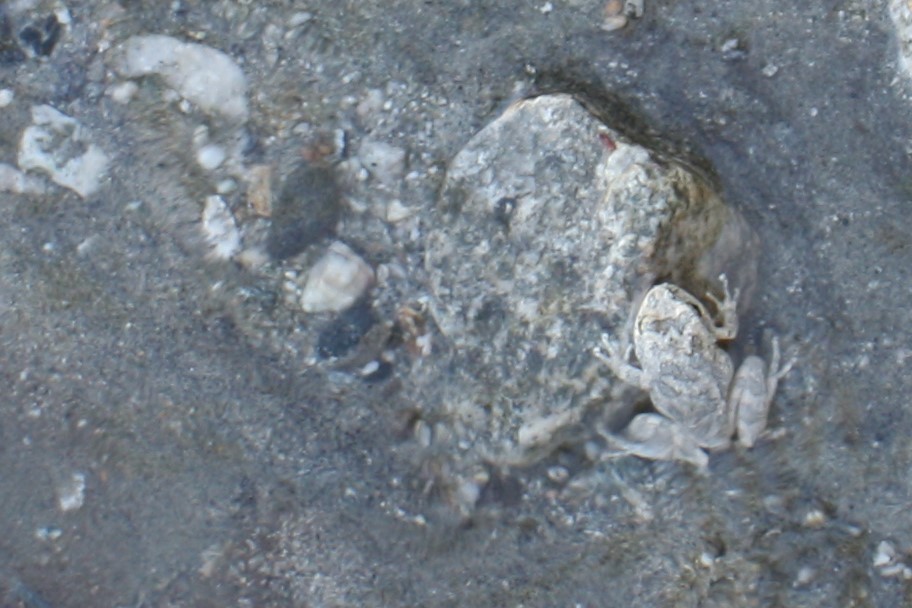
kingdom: Animalia
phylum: Chordata
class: Amphibia
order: Anura
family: Hylidae
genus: Pseudacris
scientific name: Pseudacris cadaverina
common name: California chorus frog
